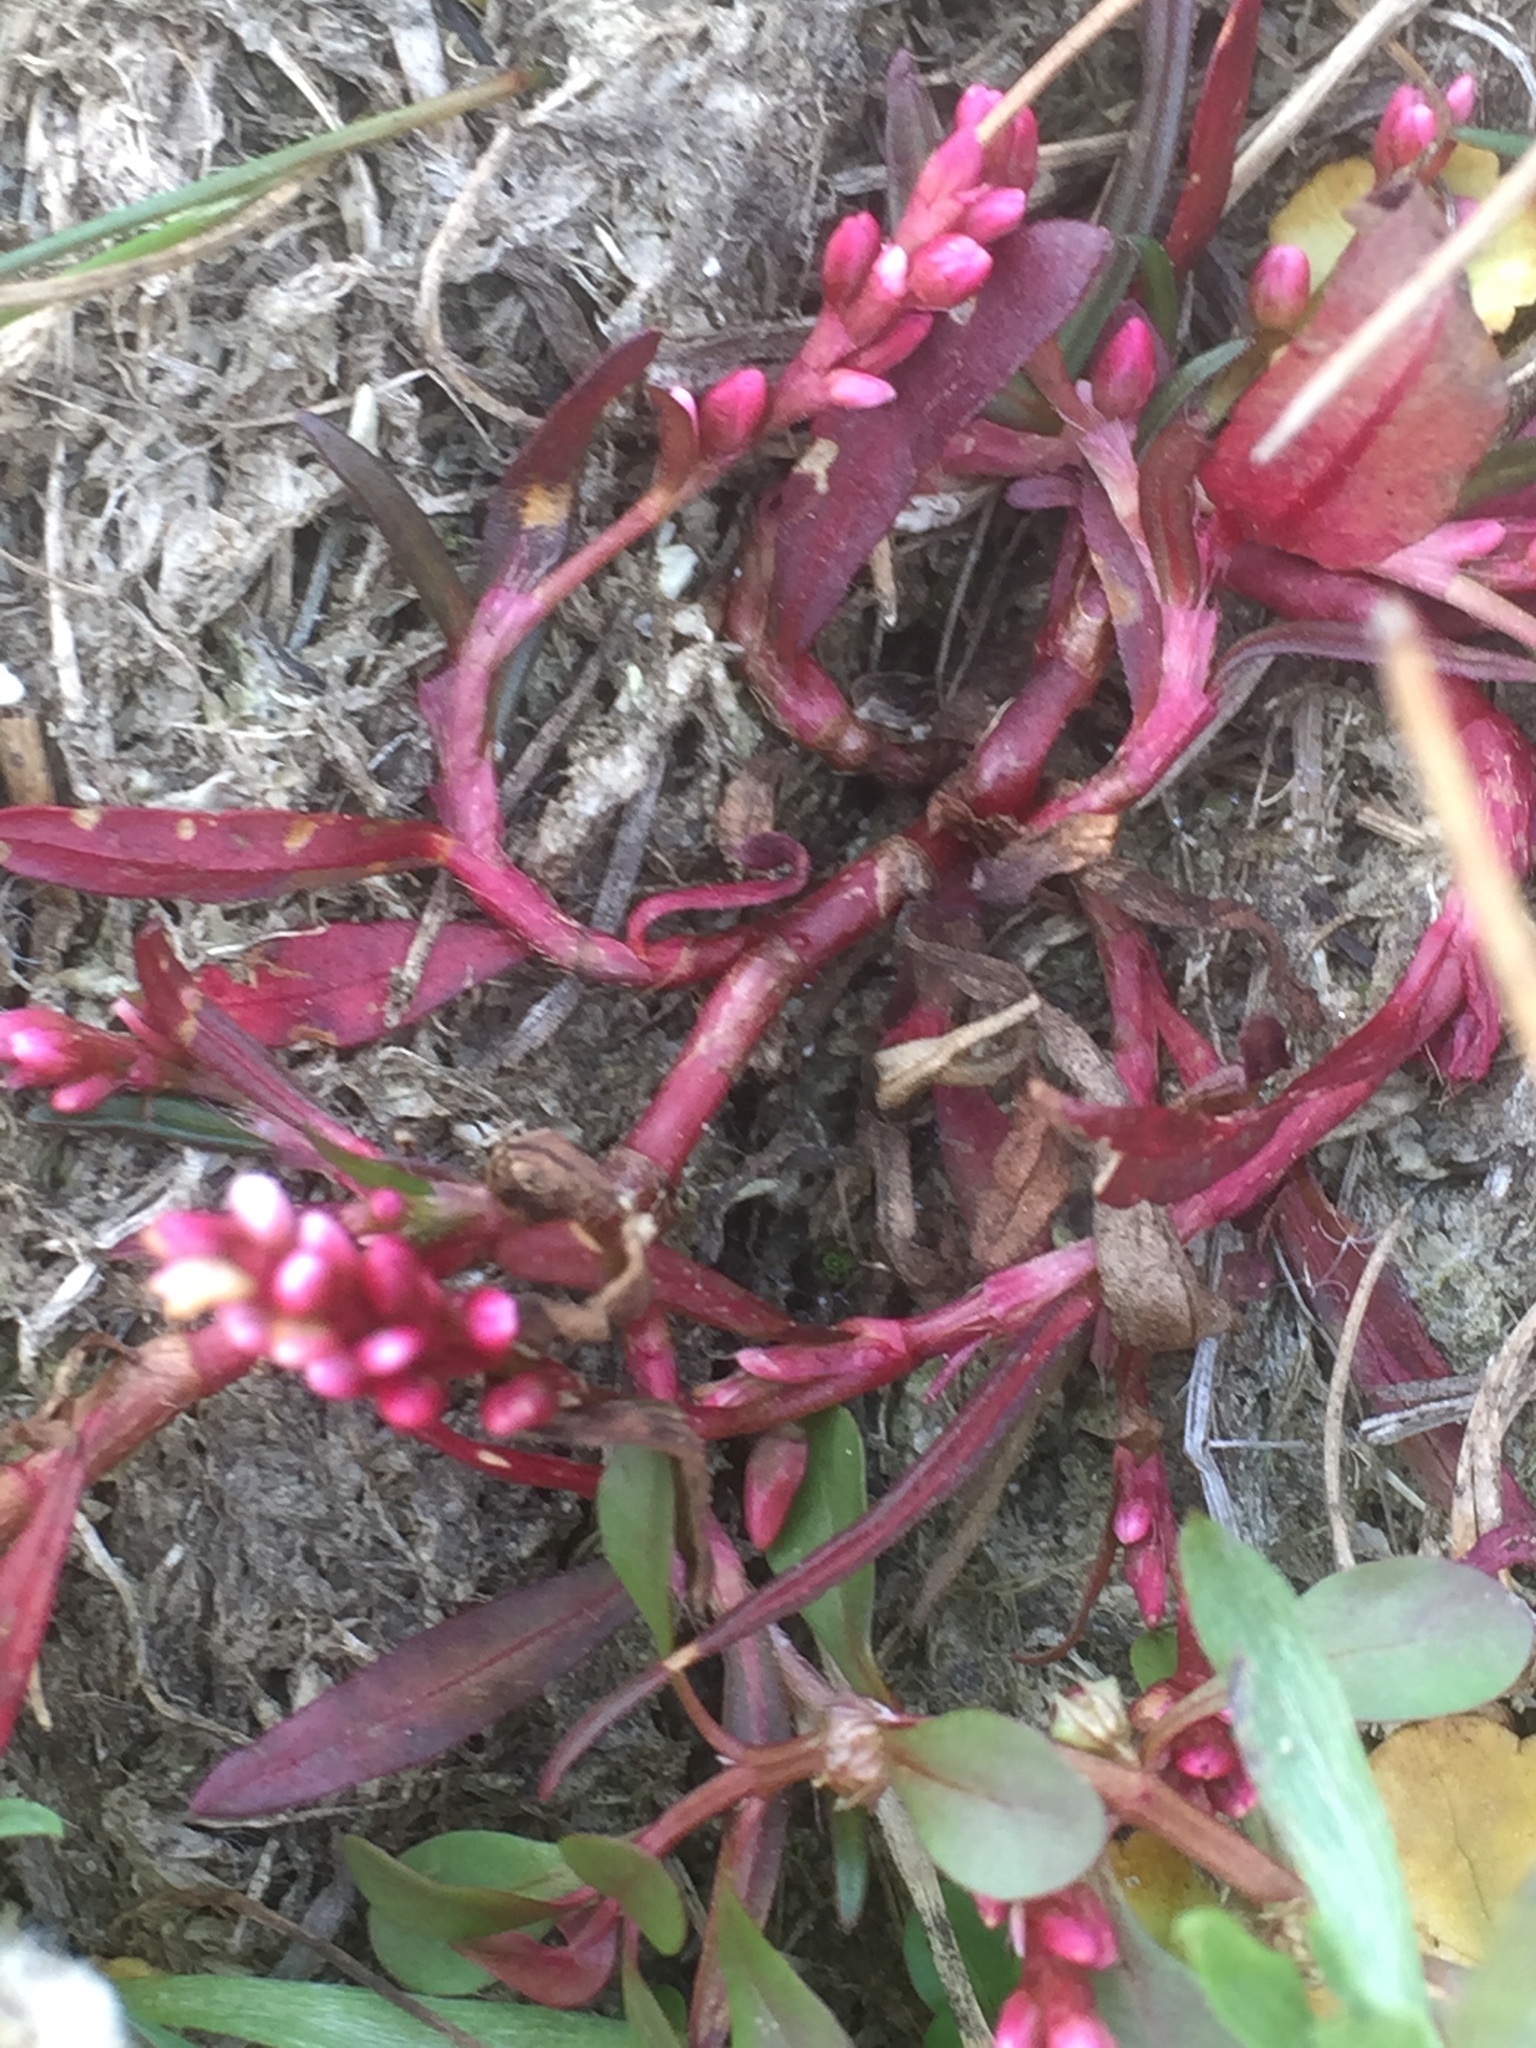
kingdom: Plantae
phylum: Tracheophyta
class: Magnoliopsida
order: Caryophyllales
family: Polygonaceae
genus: Persicaria
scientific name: Persicaria minor
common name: Small water-pepper
